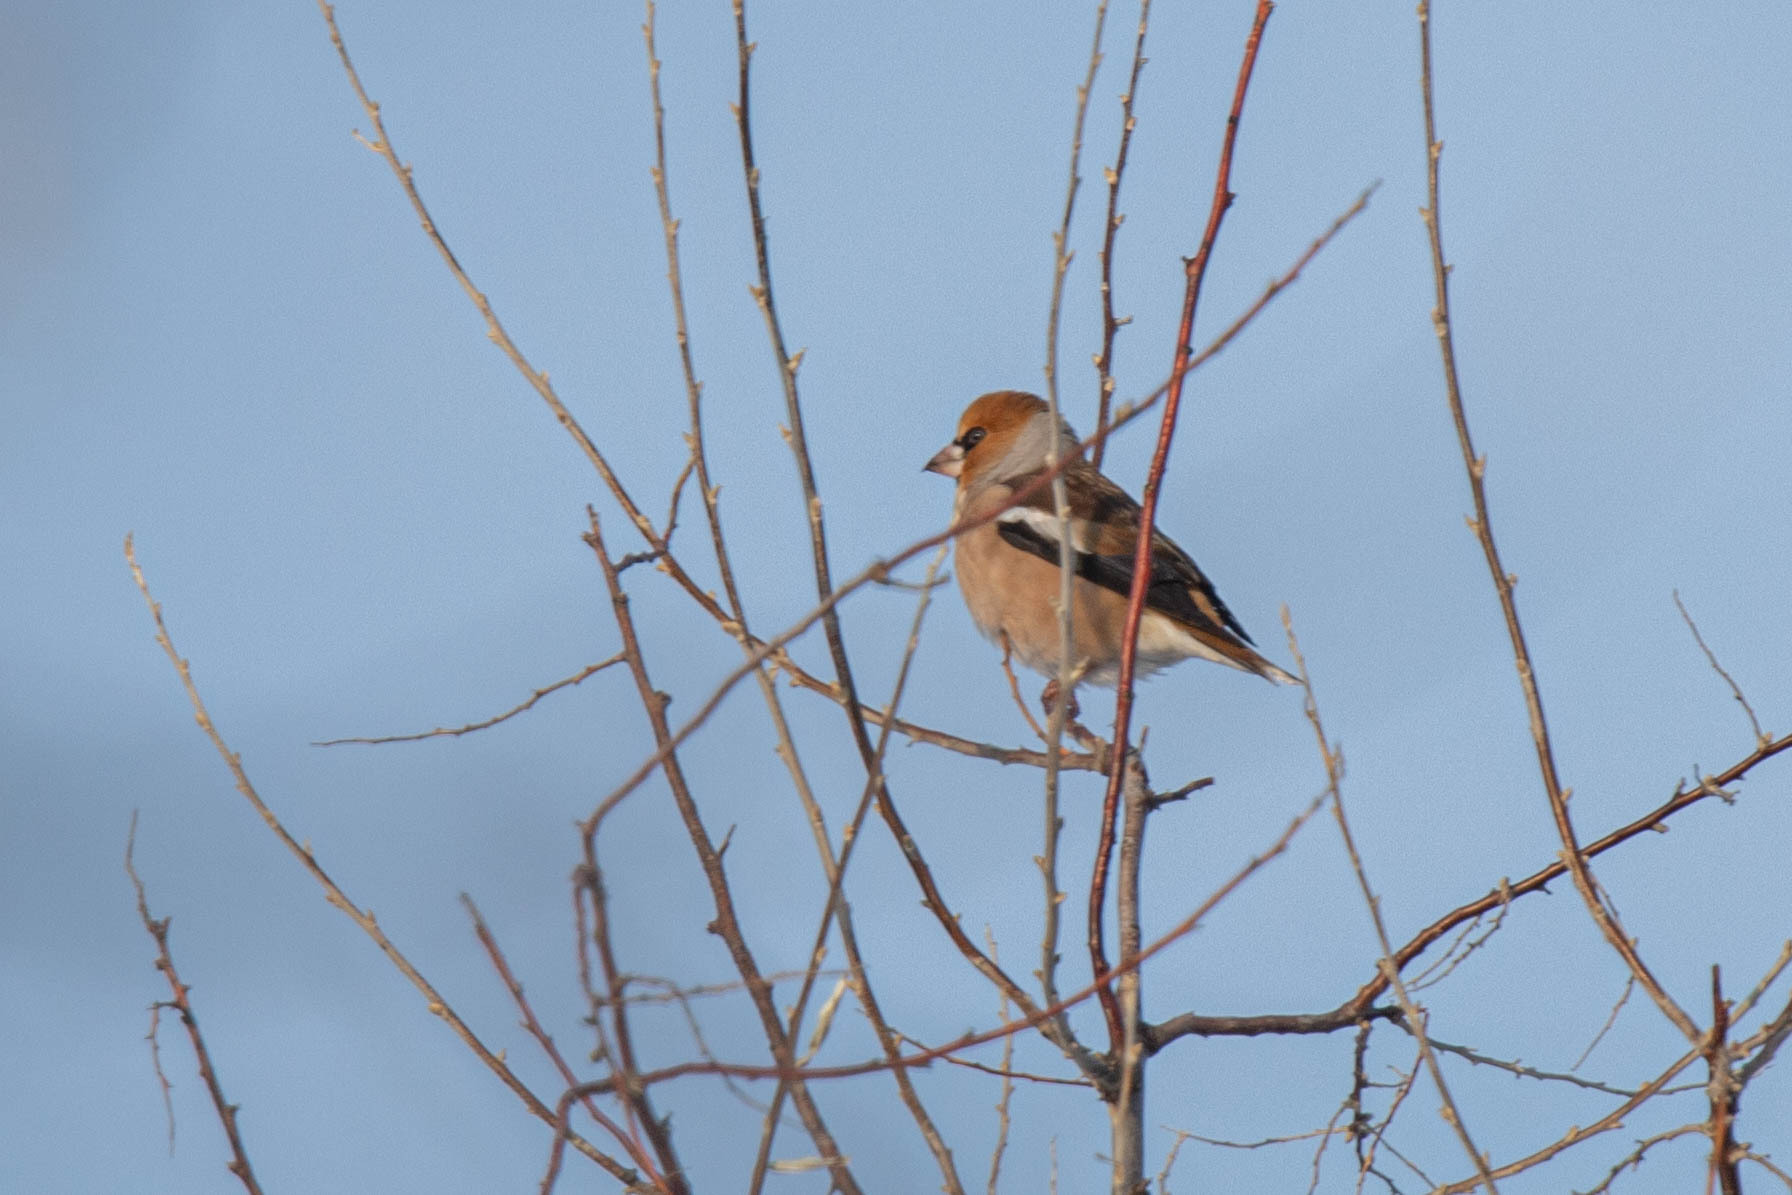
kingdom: Animalia
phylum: Chordata
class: Aves
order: Passeriformes
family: Fringillidae
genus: Coccothraustes
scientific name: Coccothraustes coccothraustes
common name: Hawfinch
